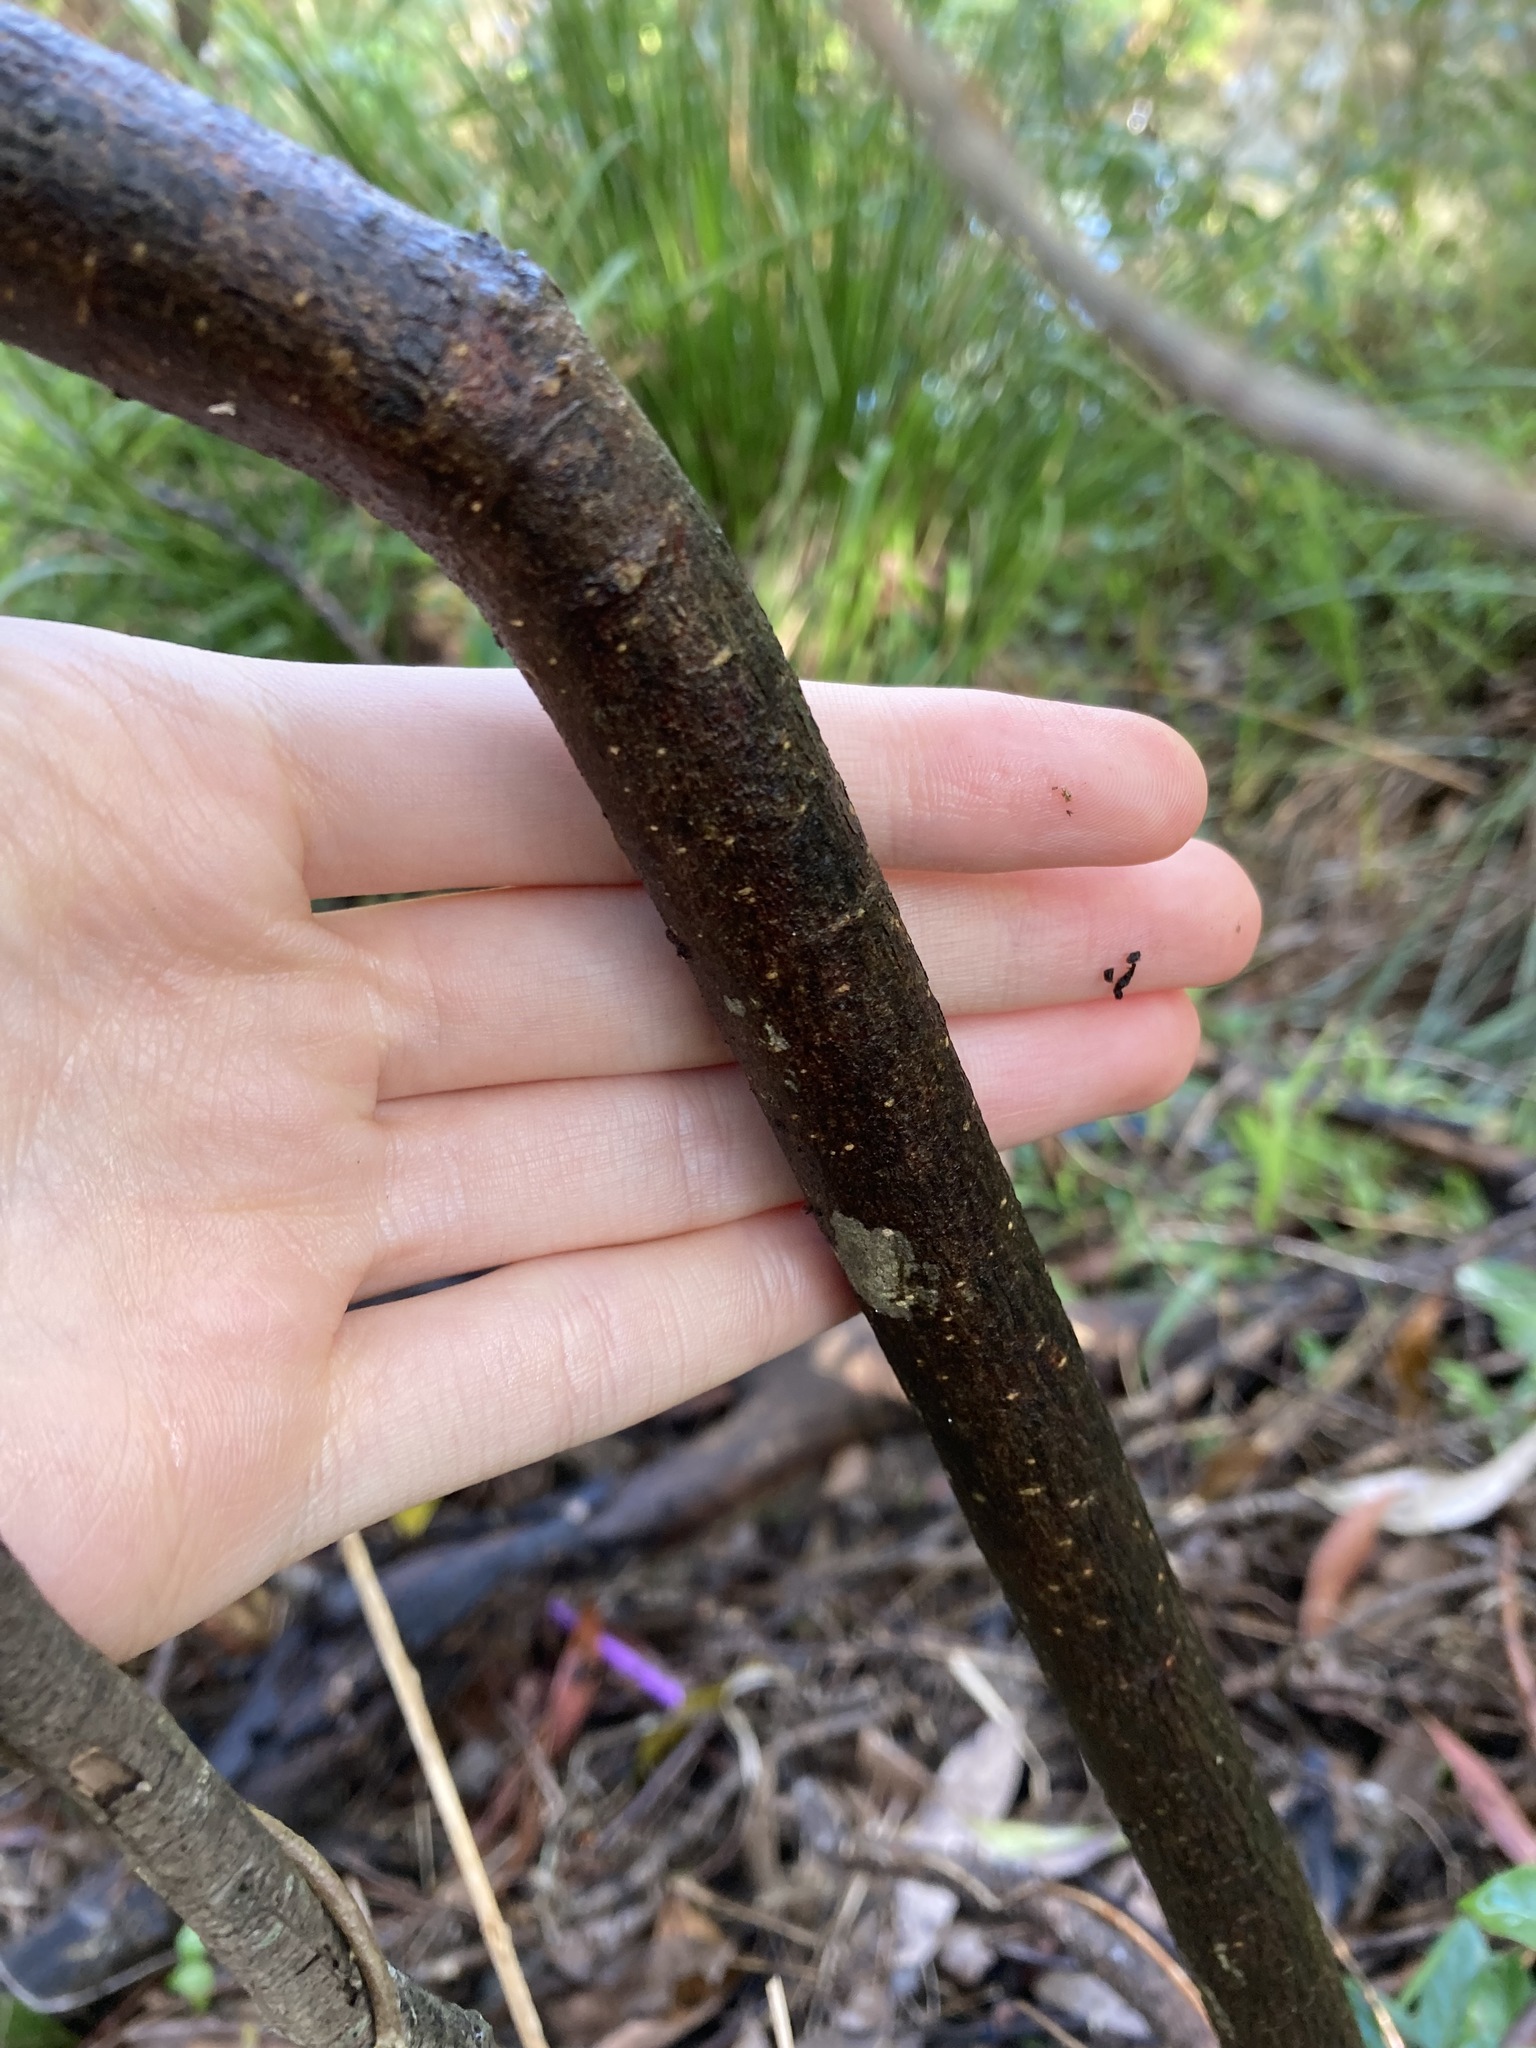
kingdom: Plantae
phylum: Tracheophyta
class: Magnoliopsida
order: Apiales
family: Pittosporaceae
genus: Hymenosporum
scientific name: Hymenosporum flavum
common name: Native frangipani
